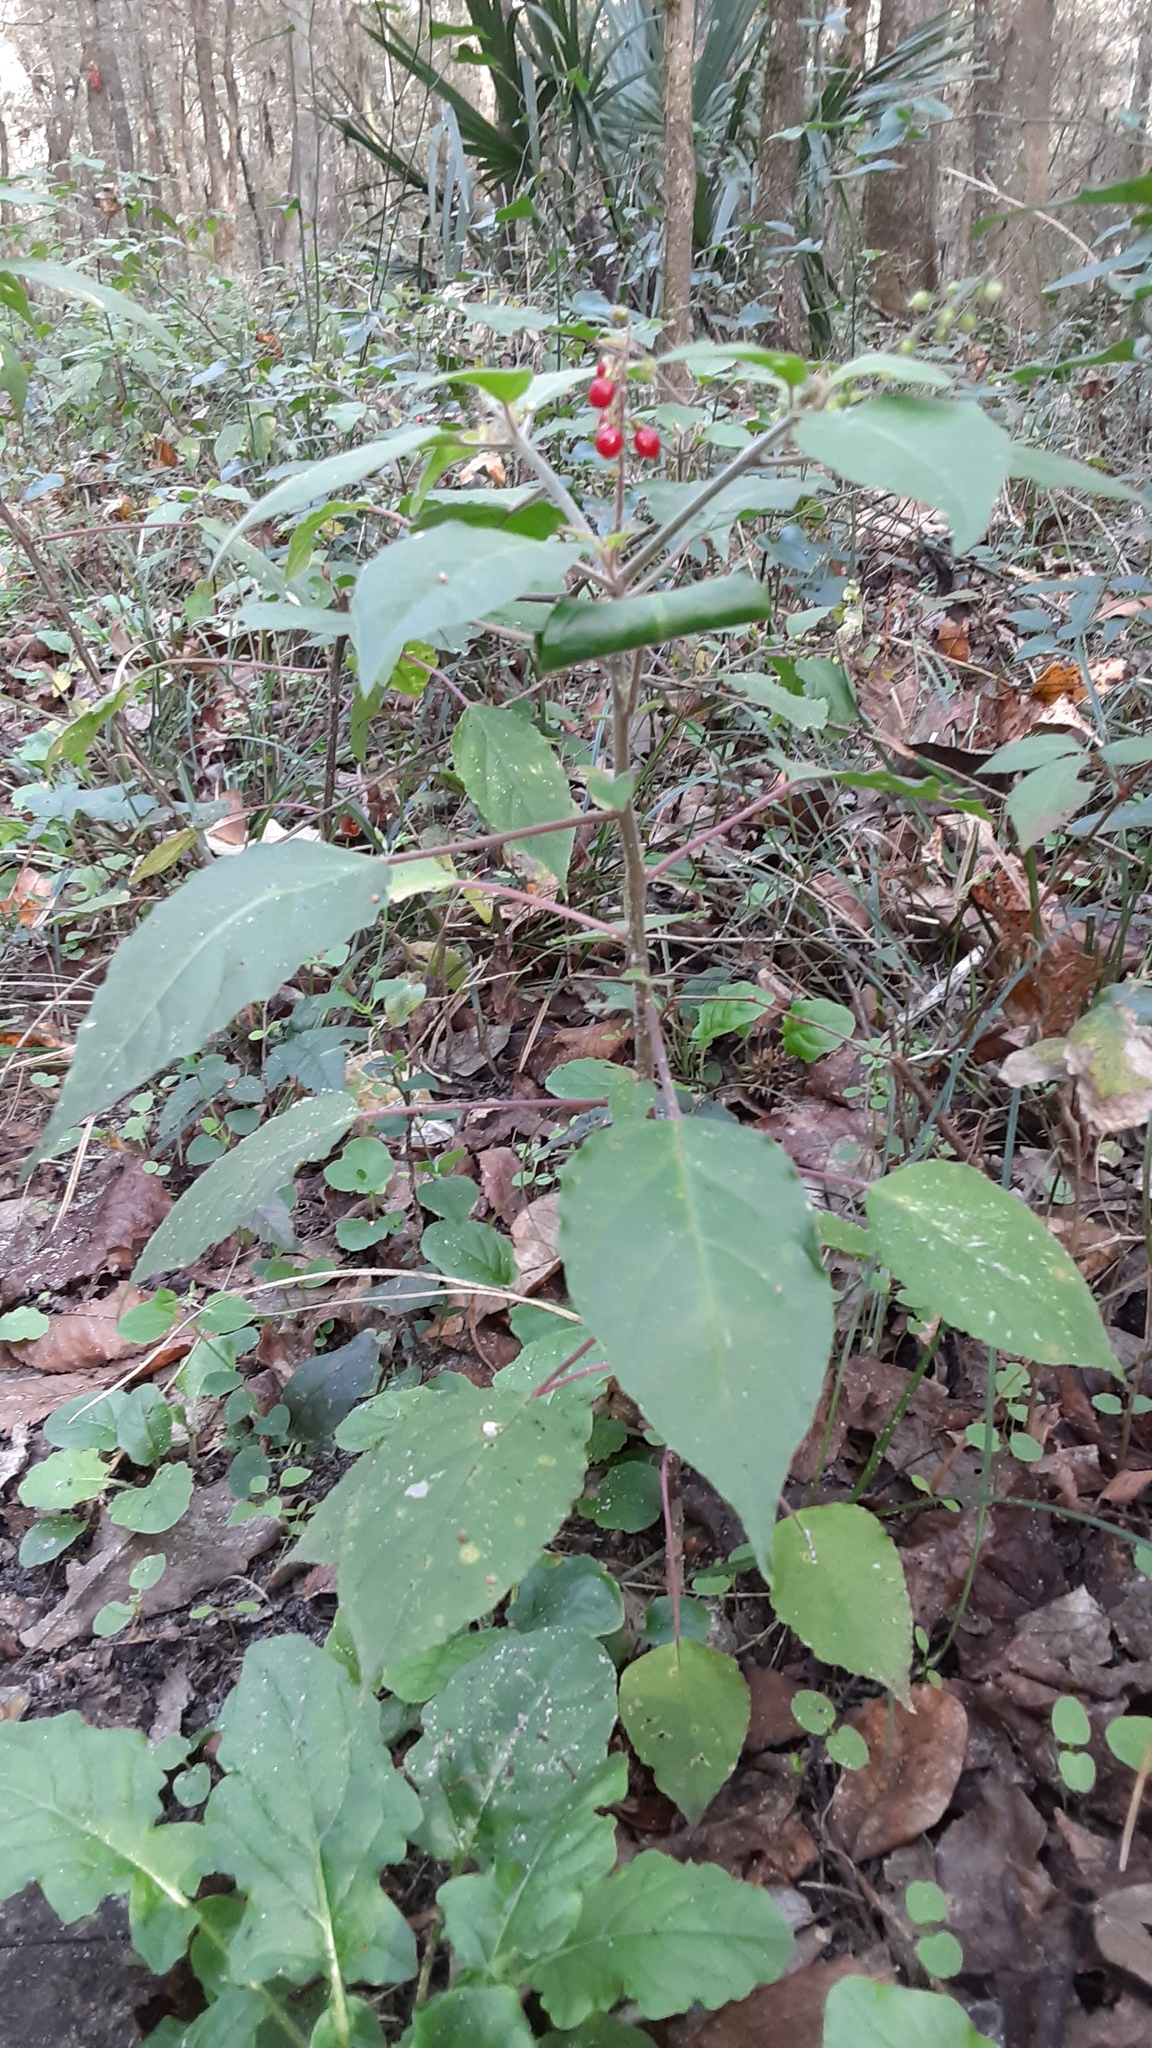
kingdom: Plantae
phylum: Tracheophyta
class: Magnoliopsida
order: Caryophyllales
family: Phytolaccaceae
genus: Rivina
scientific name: Rivina humilis
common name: Rougeplant
